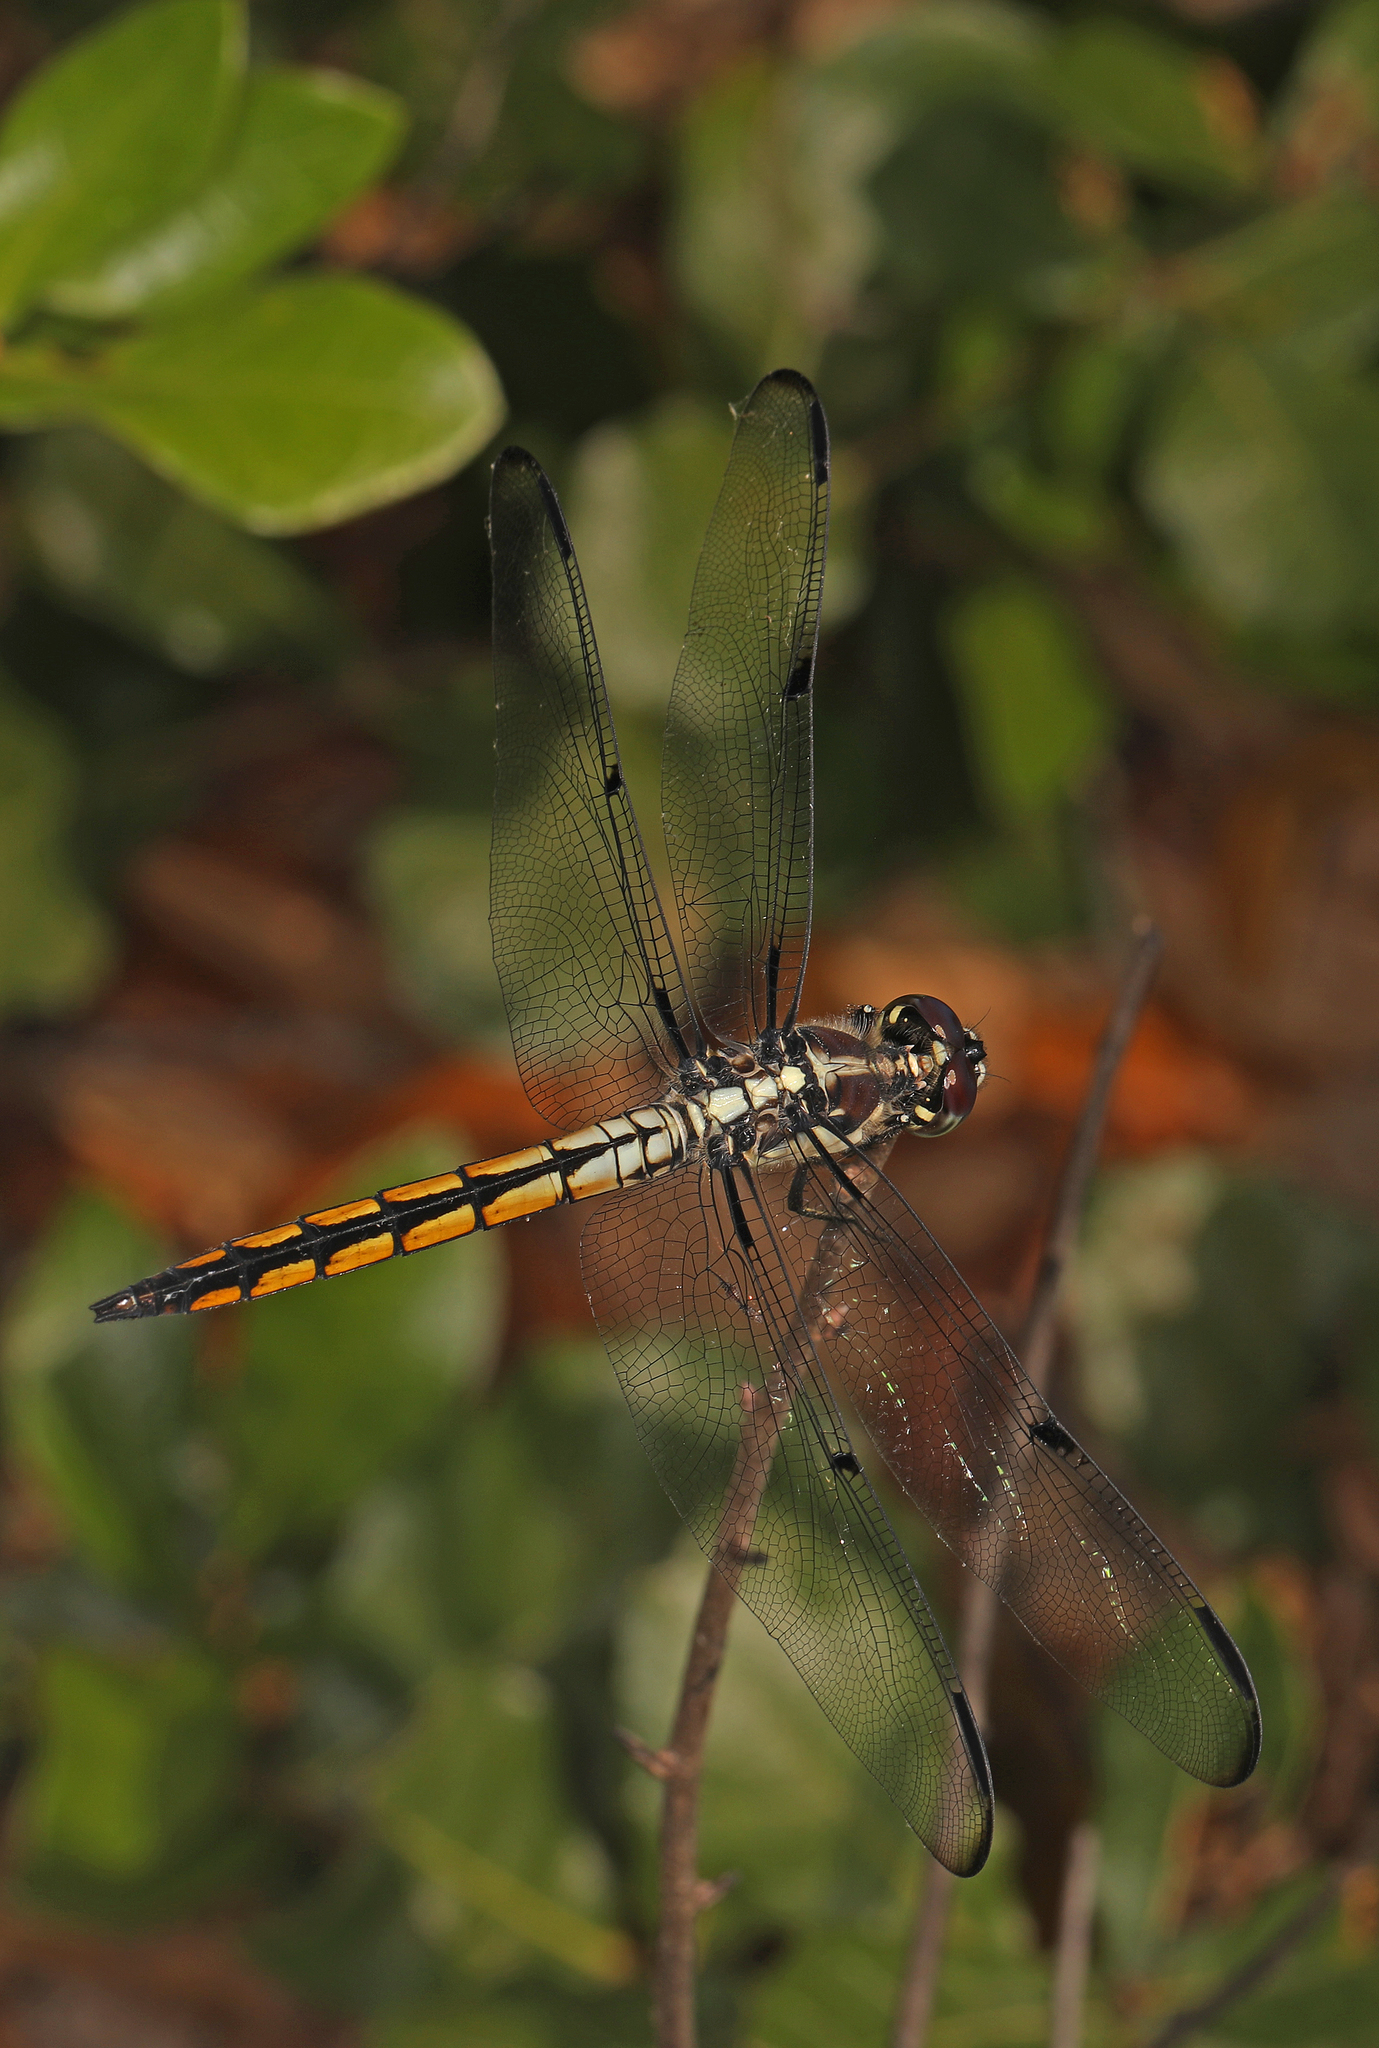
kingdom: Animalia
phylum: Arthropoda
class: Insecta
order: Odonata
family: Libellulidae
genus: Libellula
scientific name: Libellula vibrans
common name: Great blue skimmer
